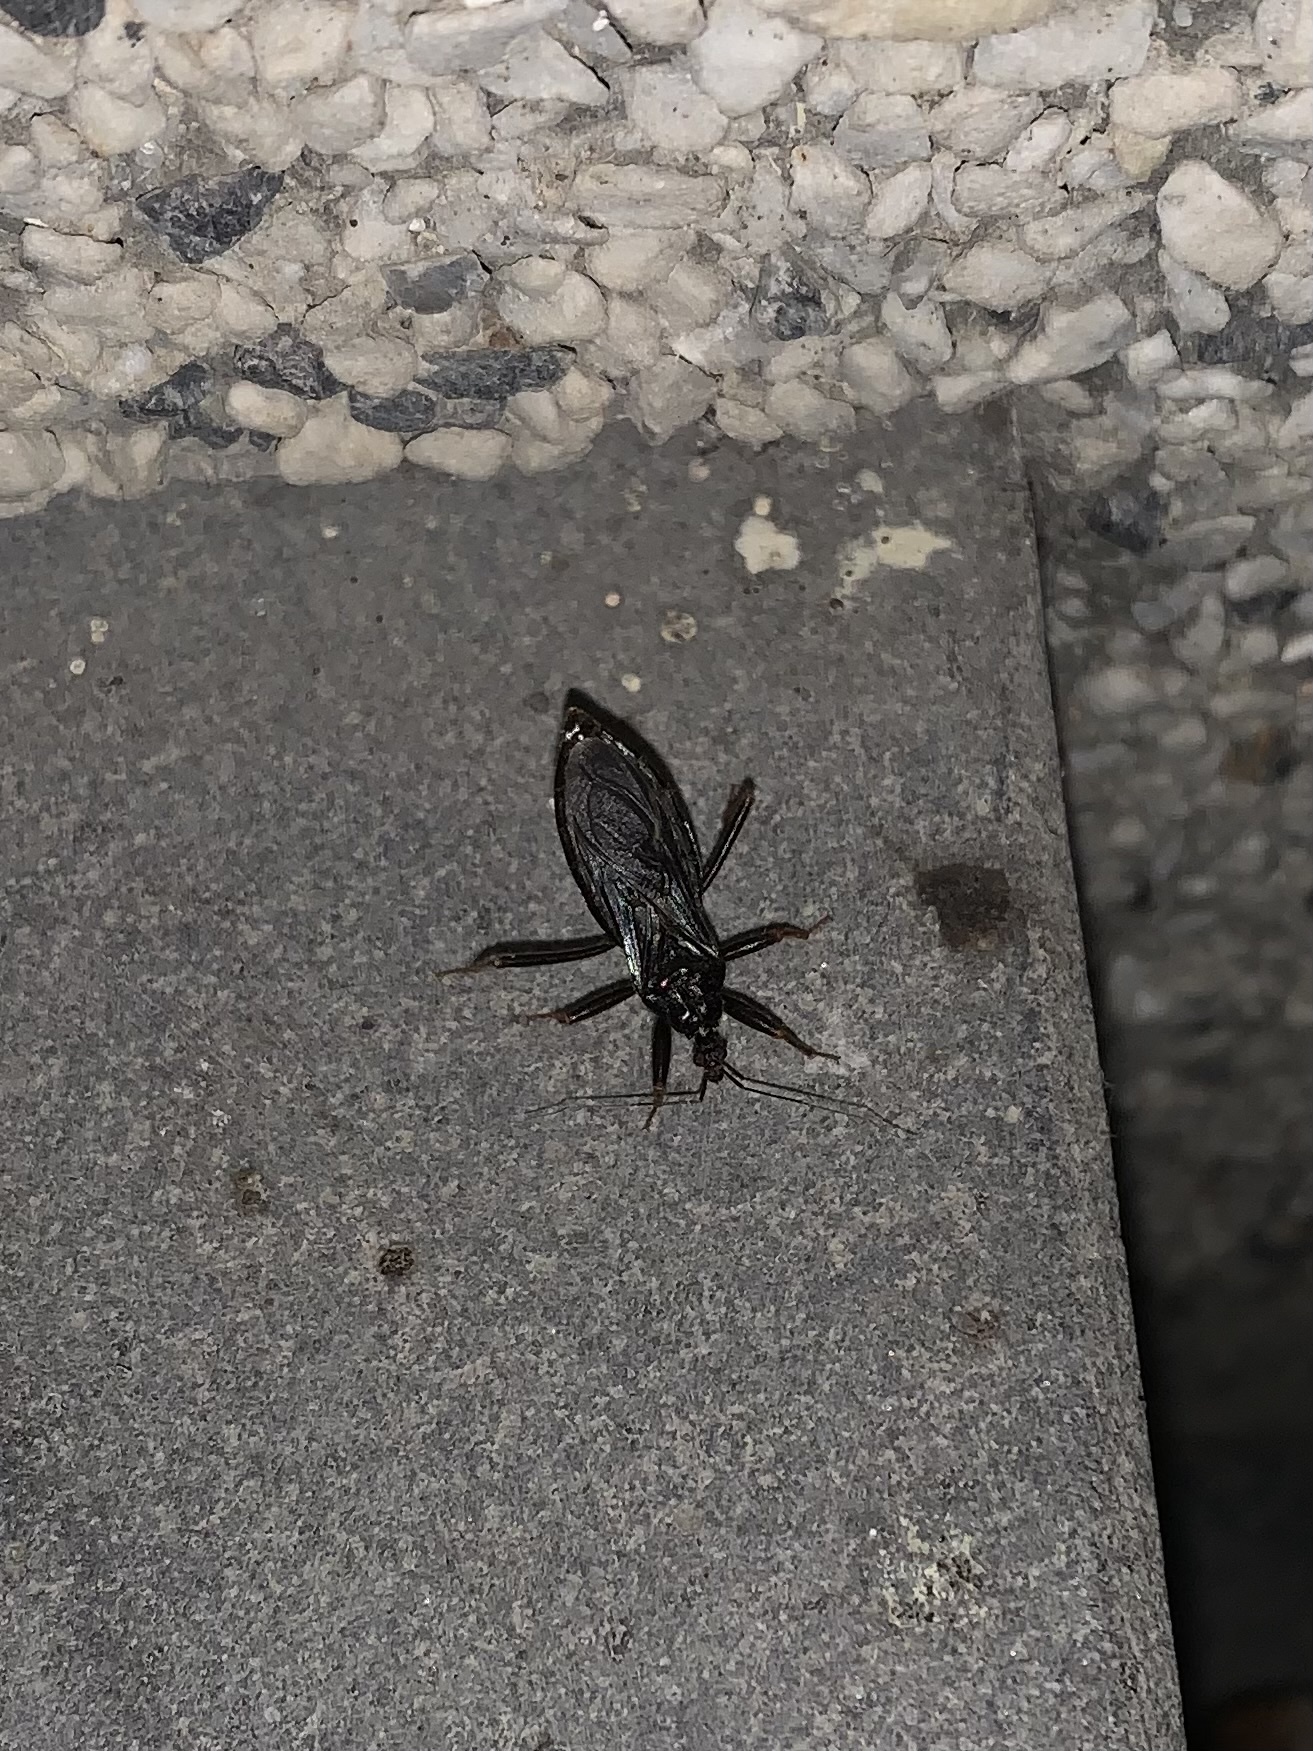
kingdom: Animalia
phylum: Arthropoda
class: Insecta
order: Hemiptera
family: Reduviidae
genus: Reduvius
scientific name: Reduvius personatus
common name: Masked hunter
